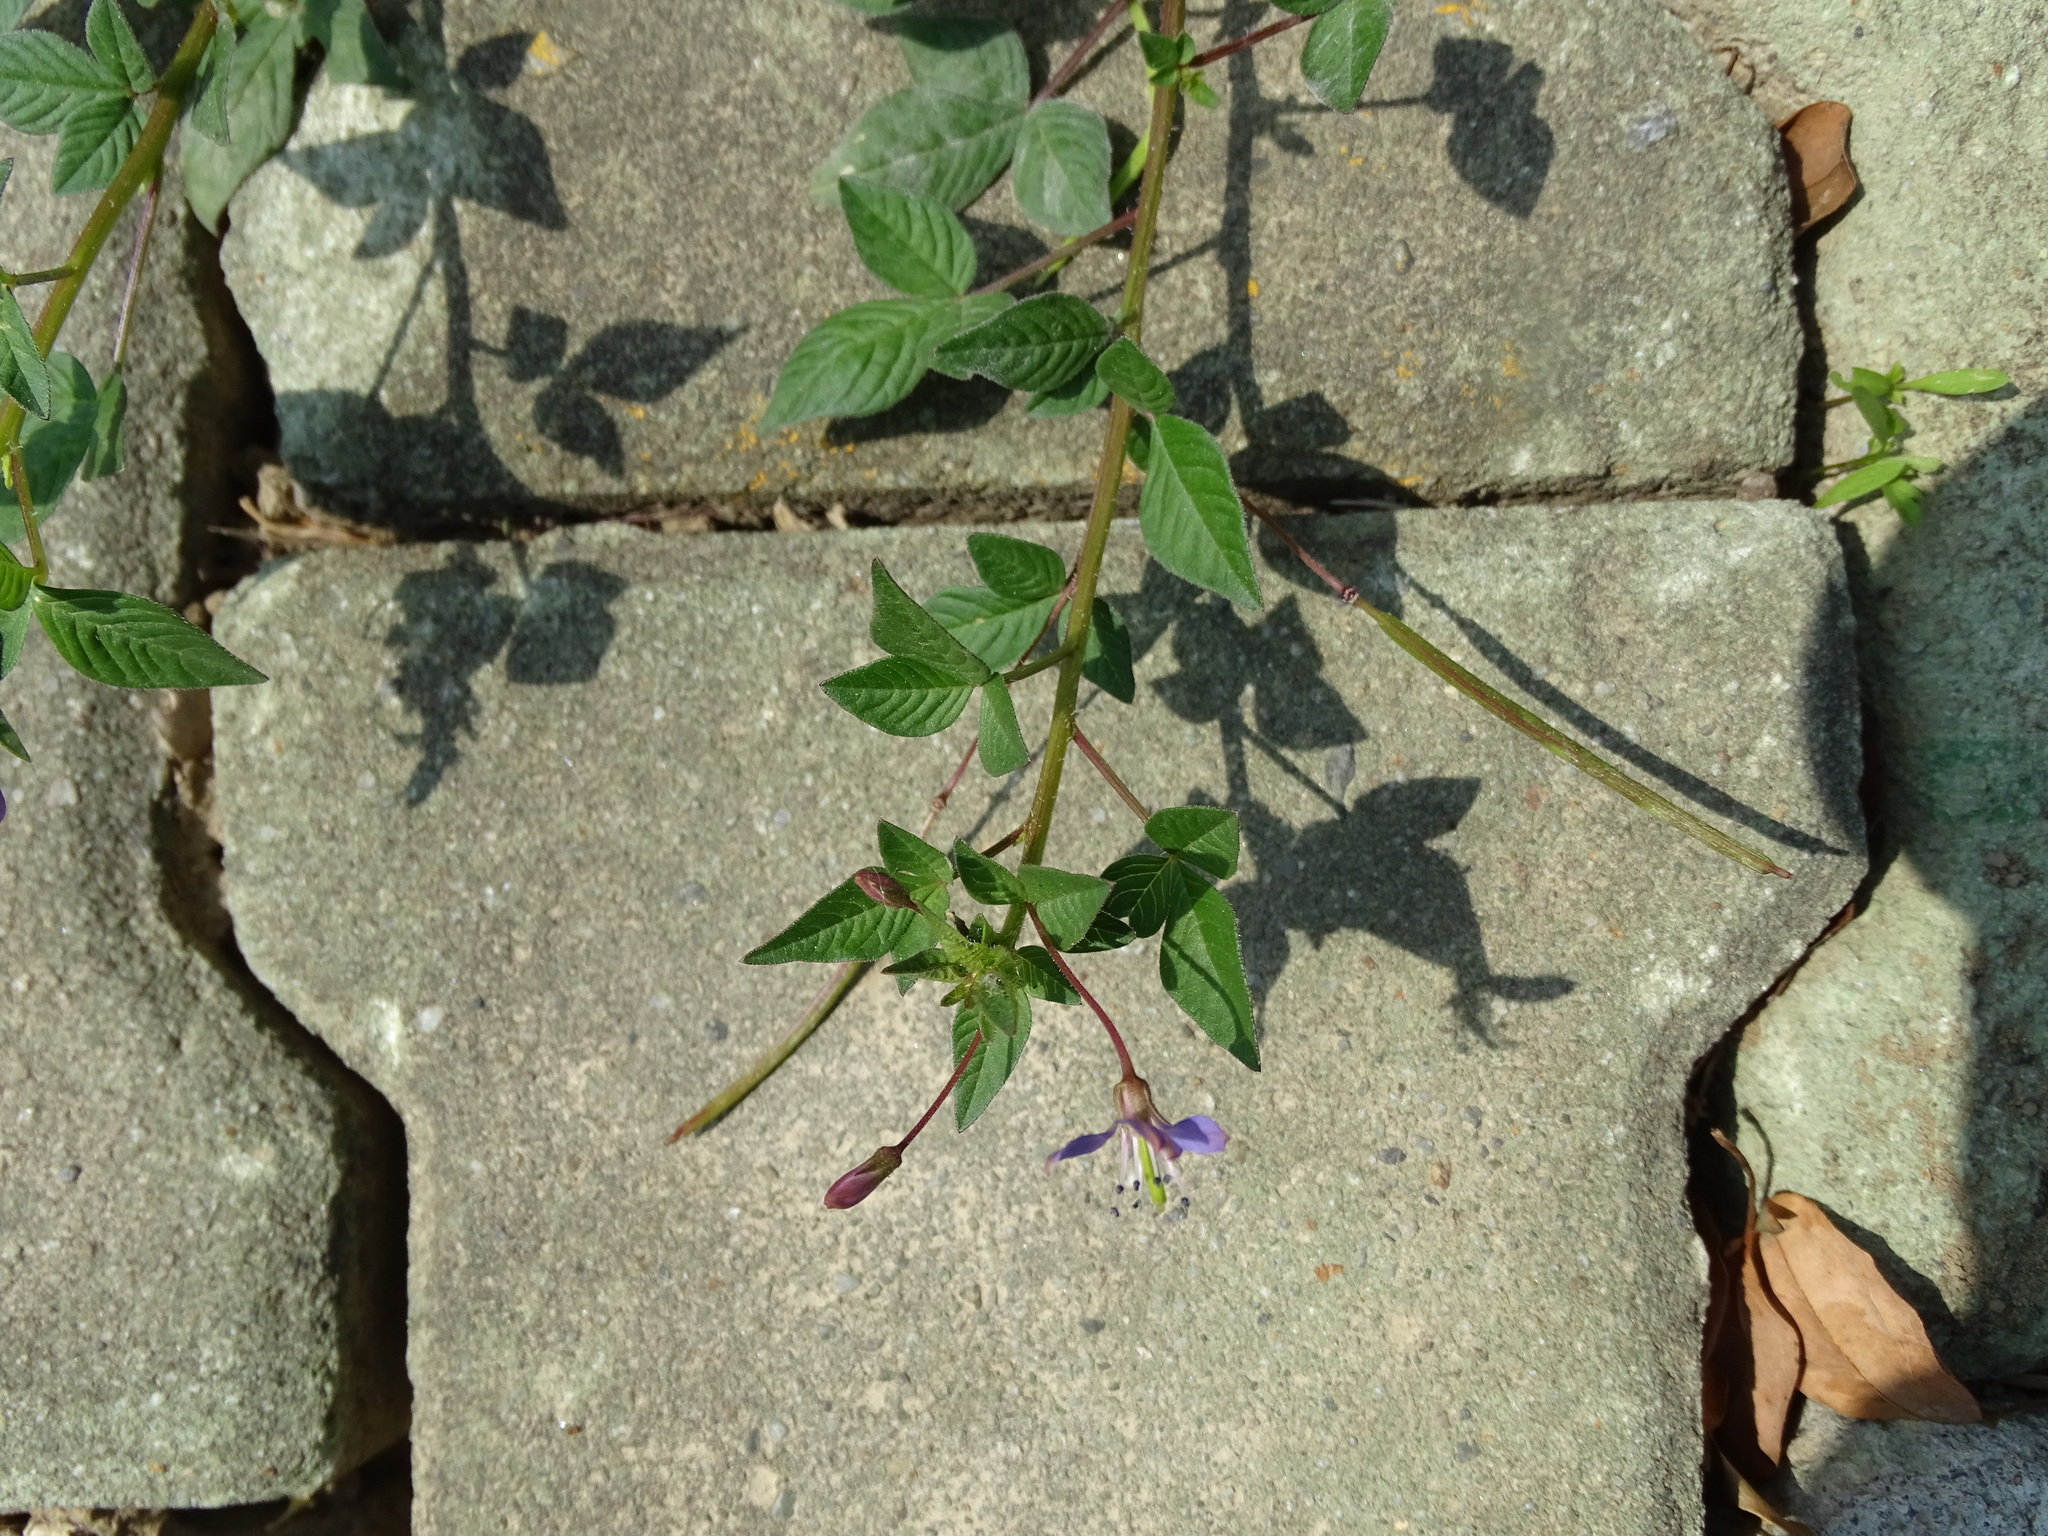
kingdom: Plantae
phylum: Tracheophyta
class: Magnoliopsida
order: Brassicales
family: Cleomaceae
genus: Sieruela
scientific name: Sieruela rutidosperma
